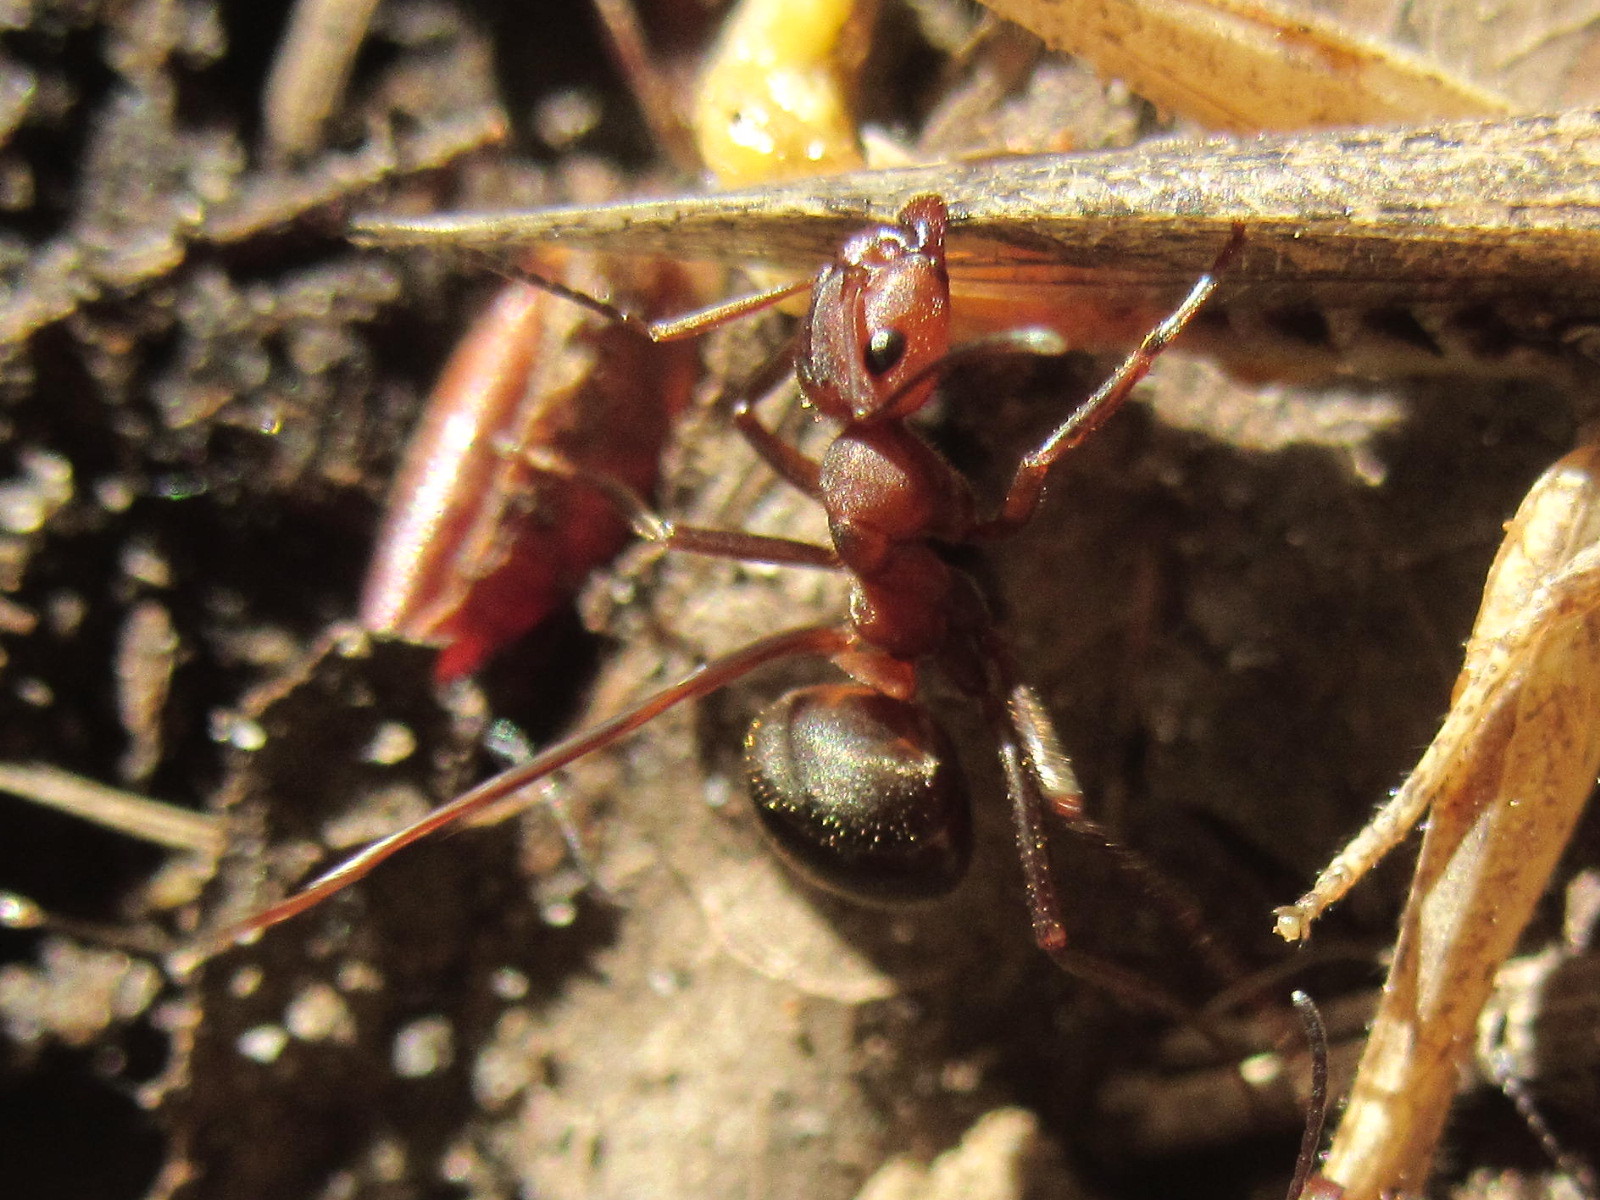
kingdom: Animalia
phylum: Arthropoda
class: Insecta
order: Hymenoptera
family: Formicidae
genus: Formica
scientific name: Formica truncorum
